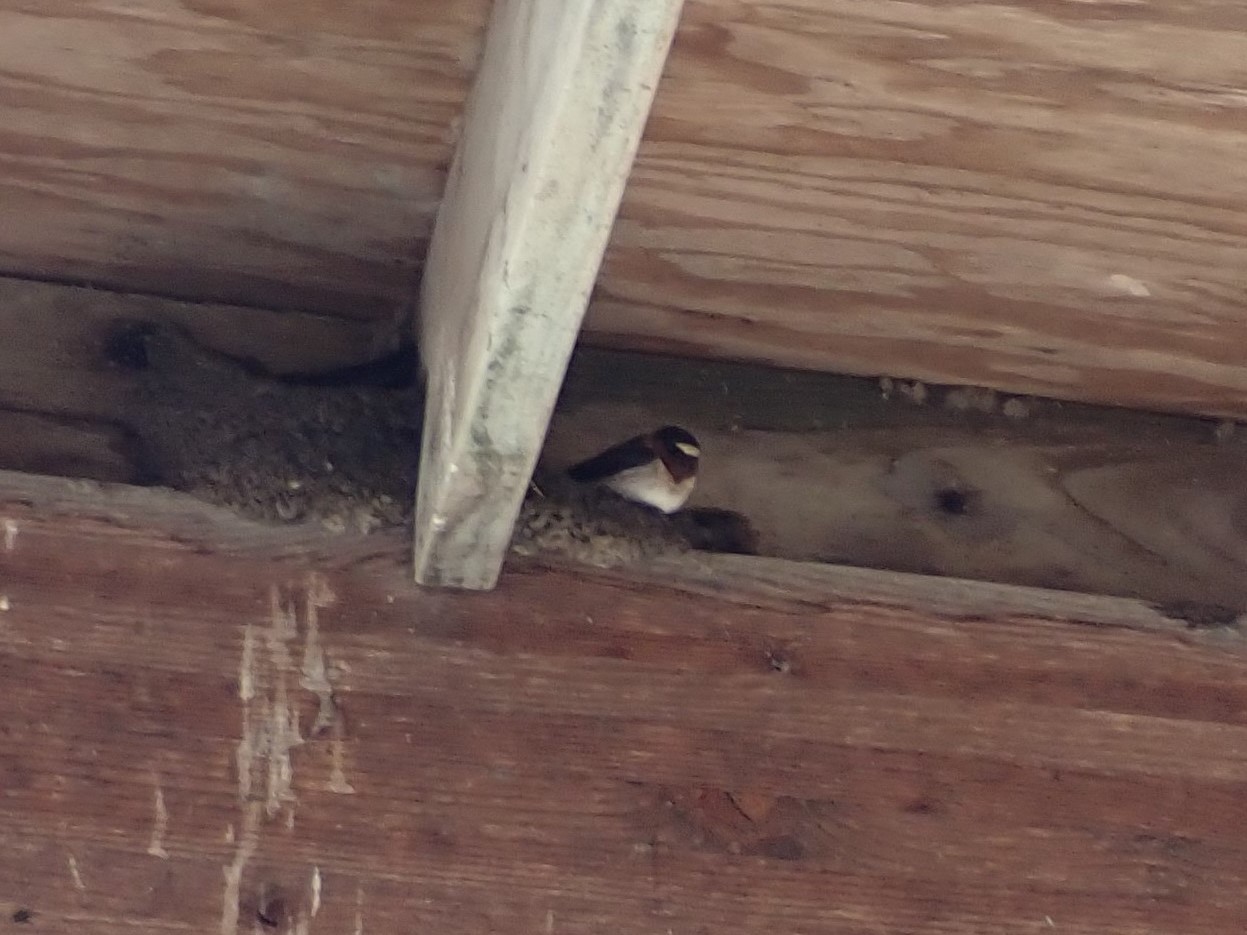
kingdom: Animalia
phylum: Chordata
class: Aves
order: Passeriformes
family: Hirundinidae
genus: Petrochelidon
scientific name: Petrochelidon pyrrhonota
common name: American cliff swallow
